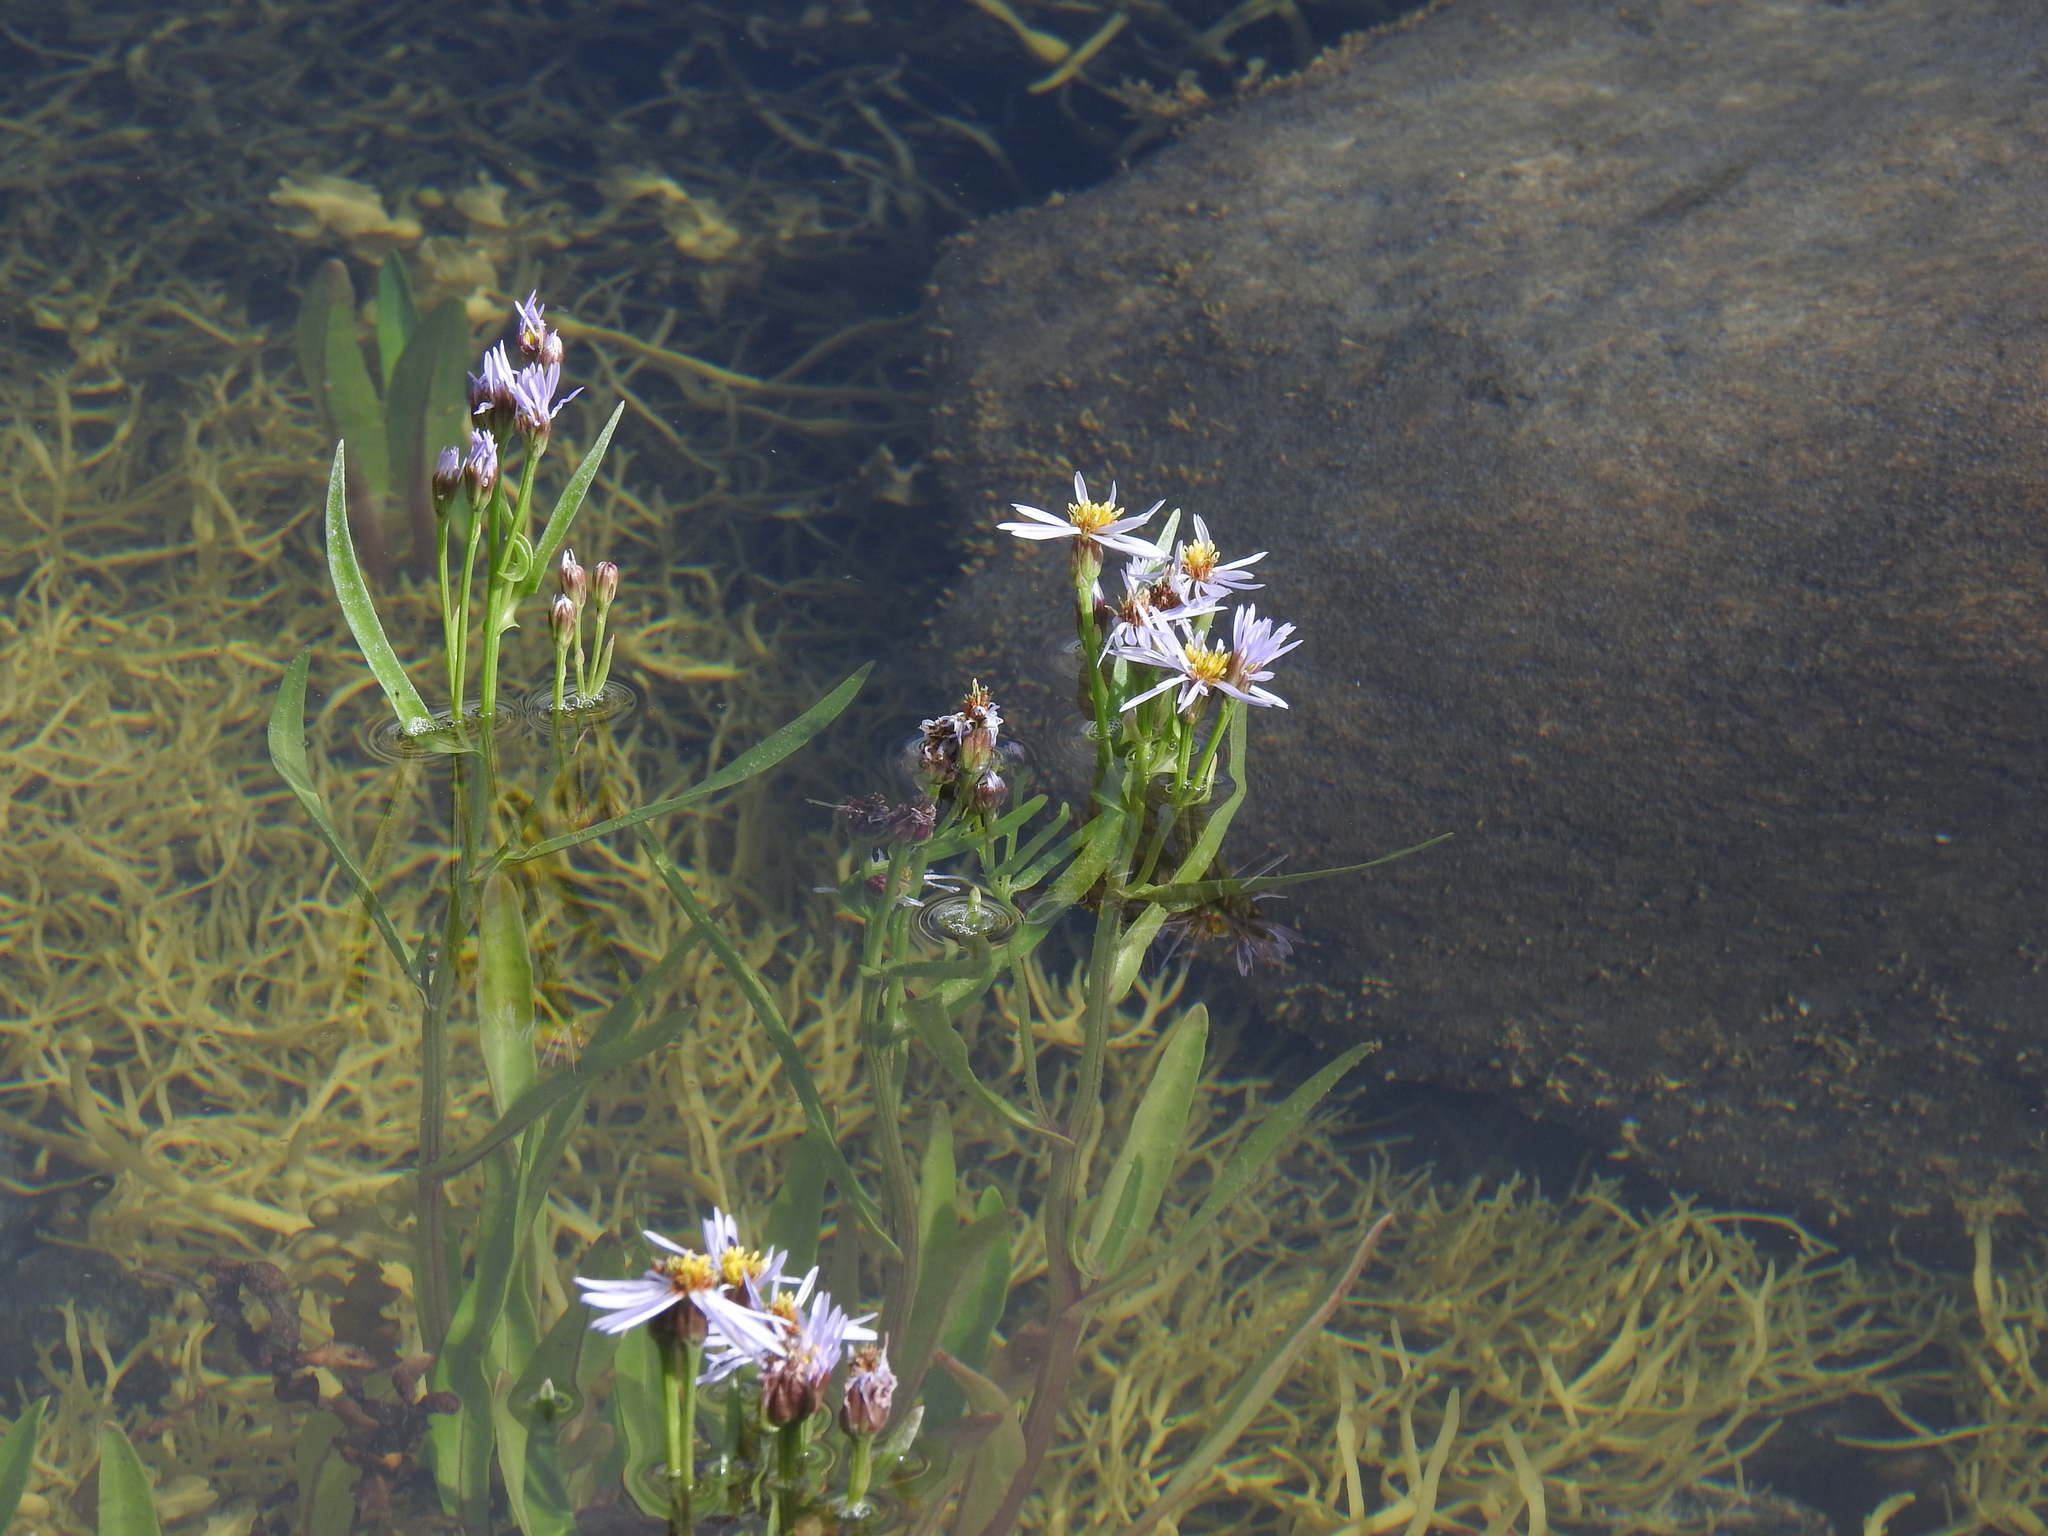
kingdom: Plantae
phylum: Tracheophyta
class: Magnoliopsida
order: Asterales
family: Asteraceae
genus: Tripolium
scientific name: Tripolium pannonicum
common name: Sea aster
